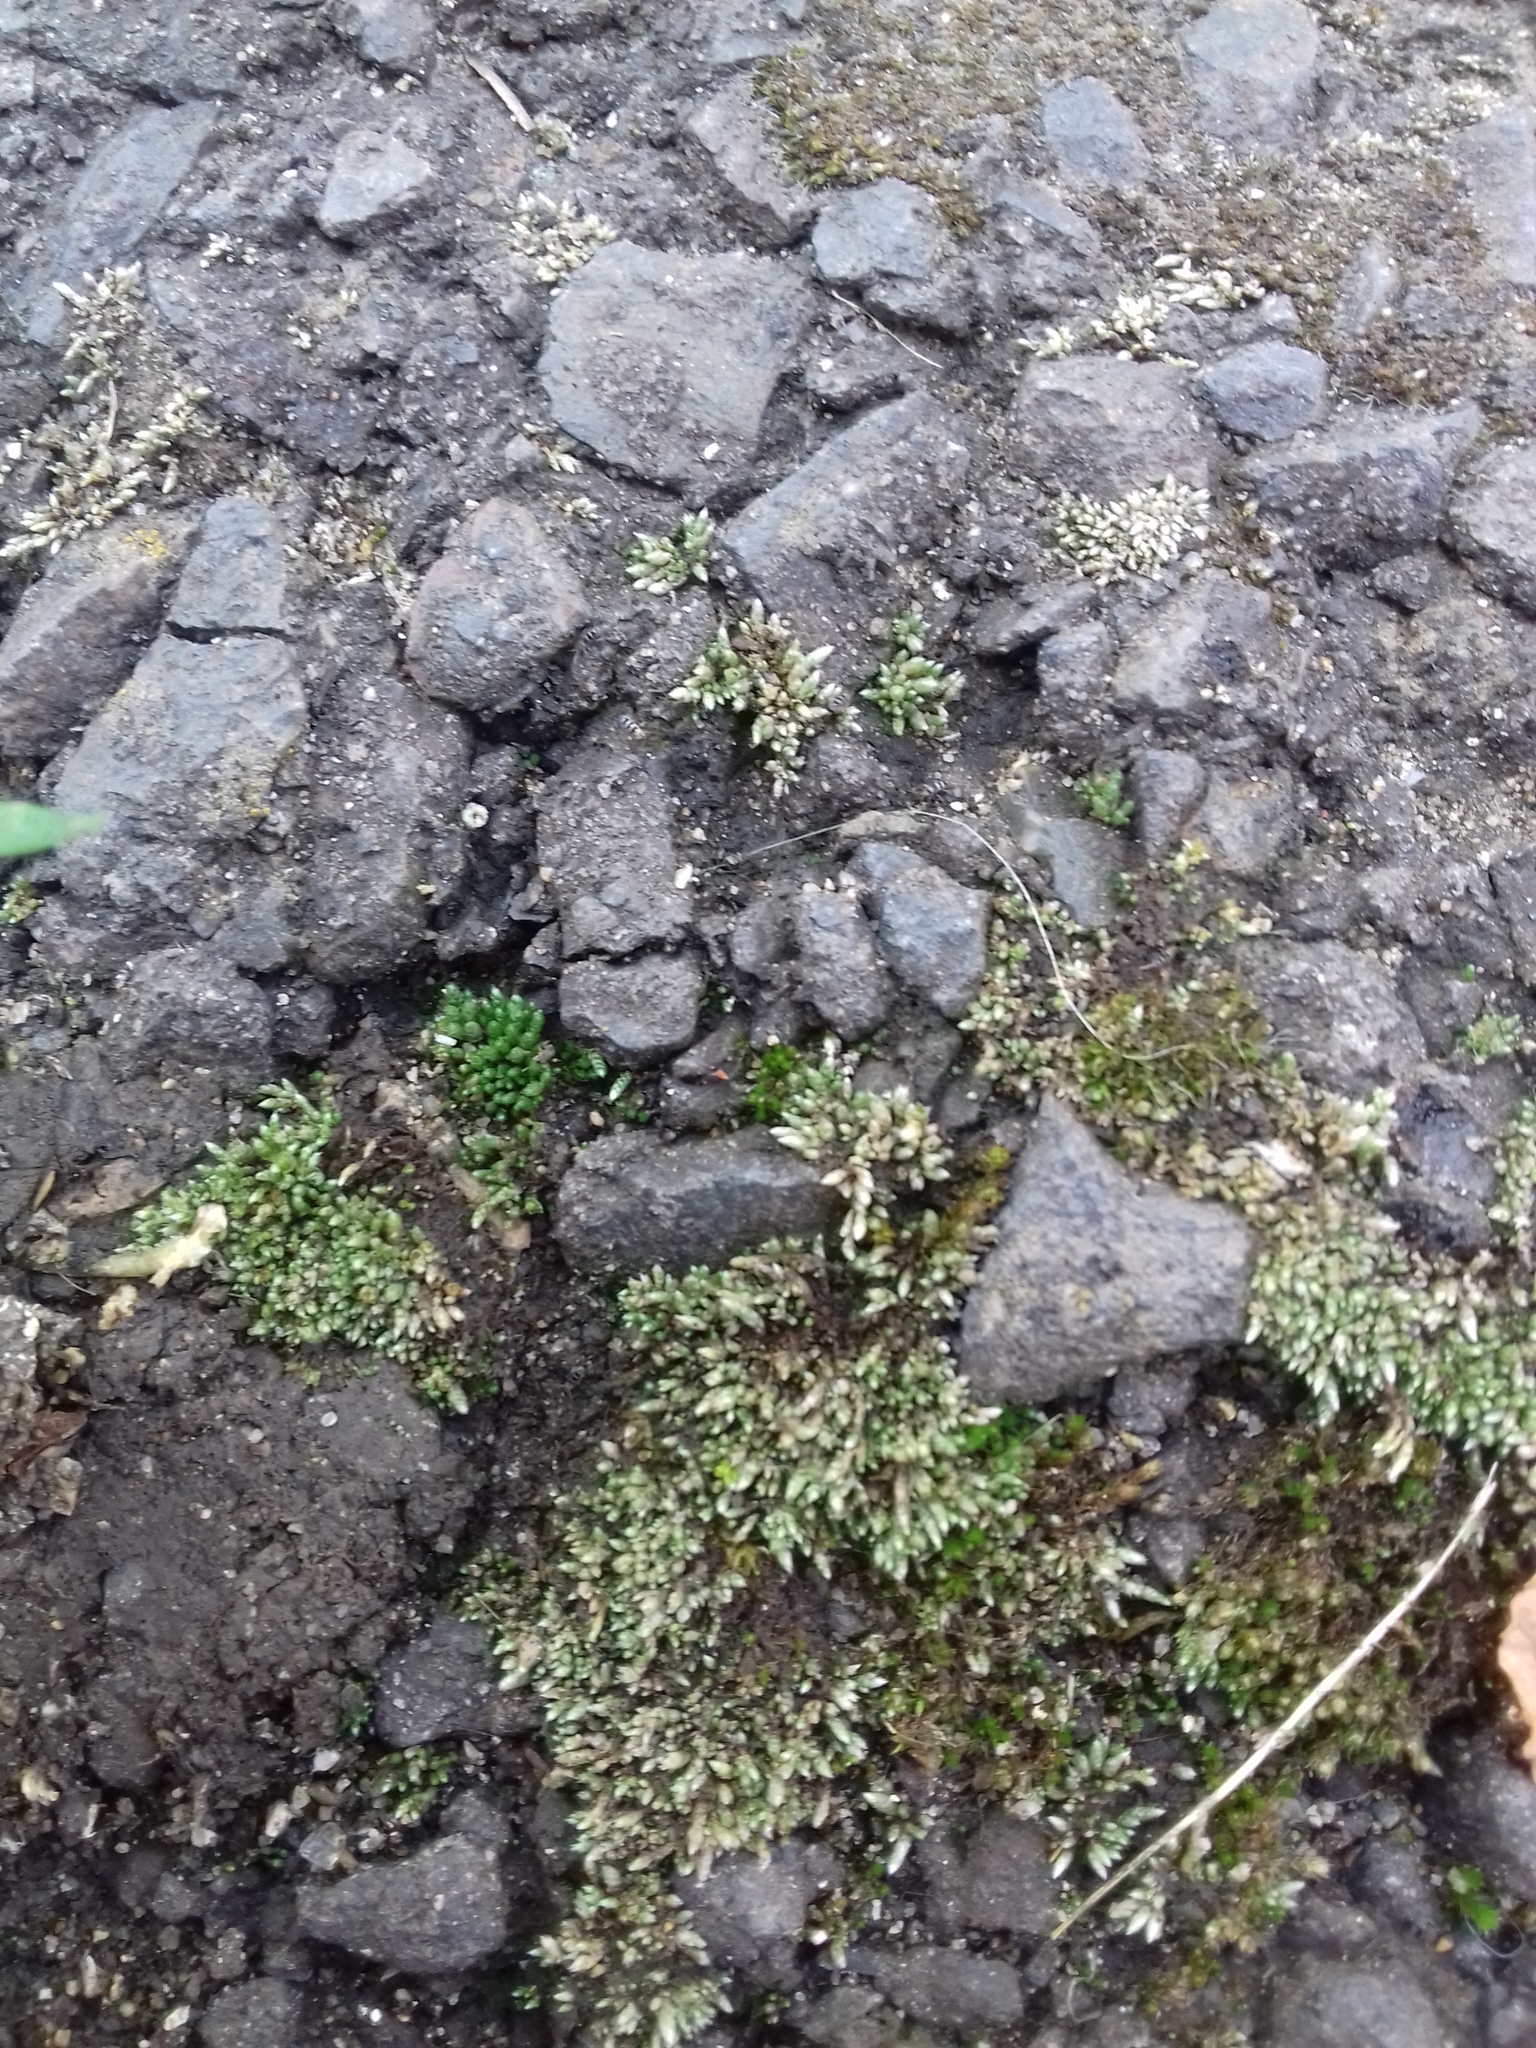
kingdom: Plantae
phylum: Bryophyta
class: Bryopsida
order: Bryales
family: Bryaceae
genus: Bryum
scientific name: Bryum argenteum
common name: Silver-moss
